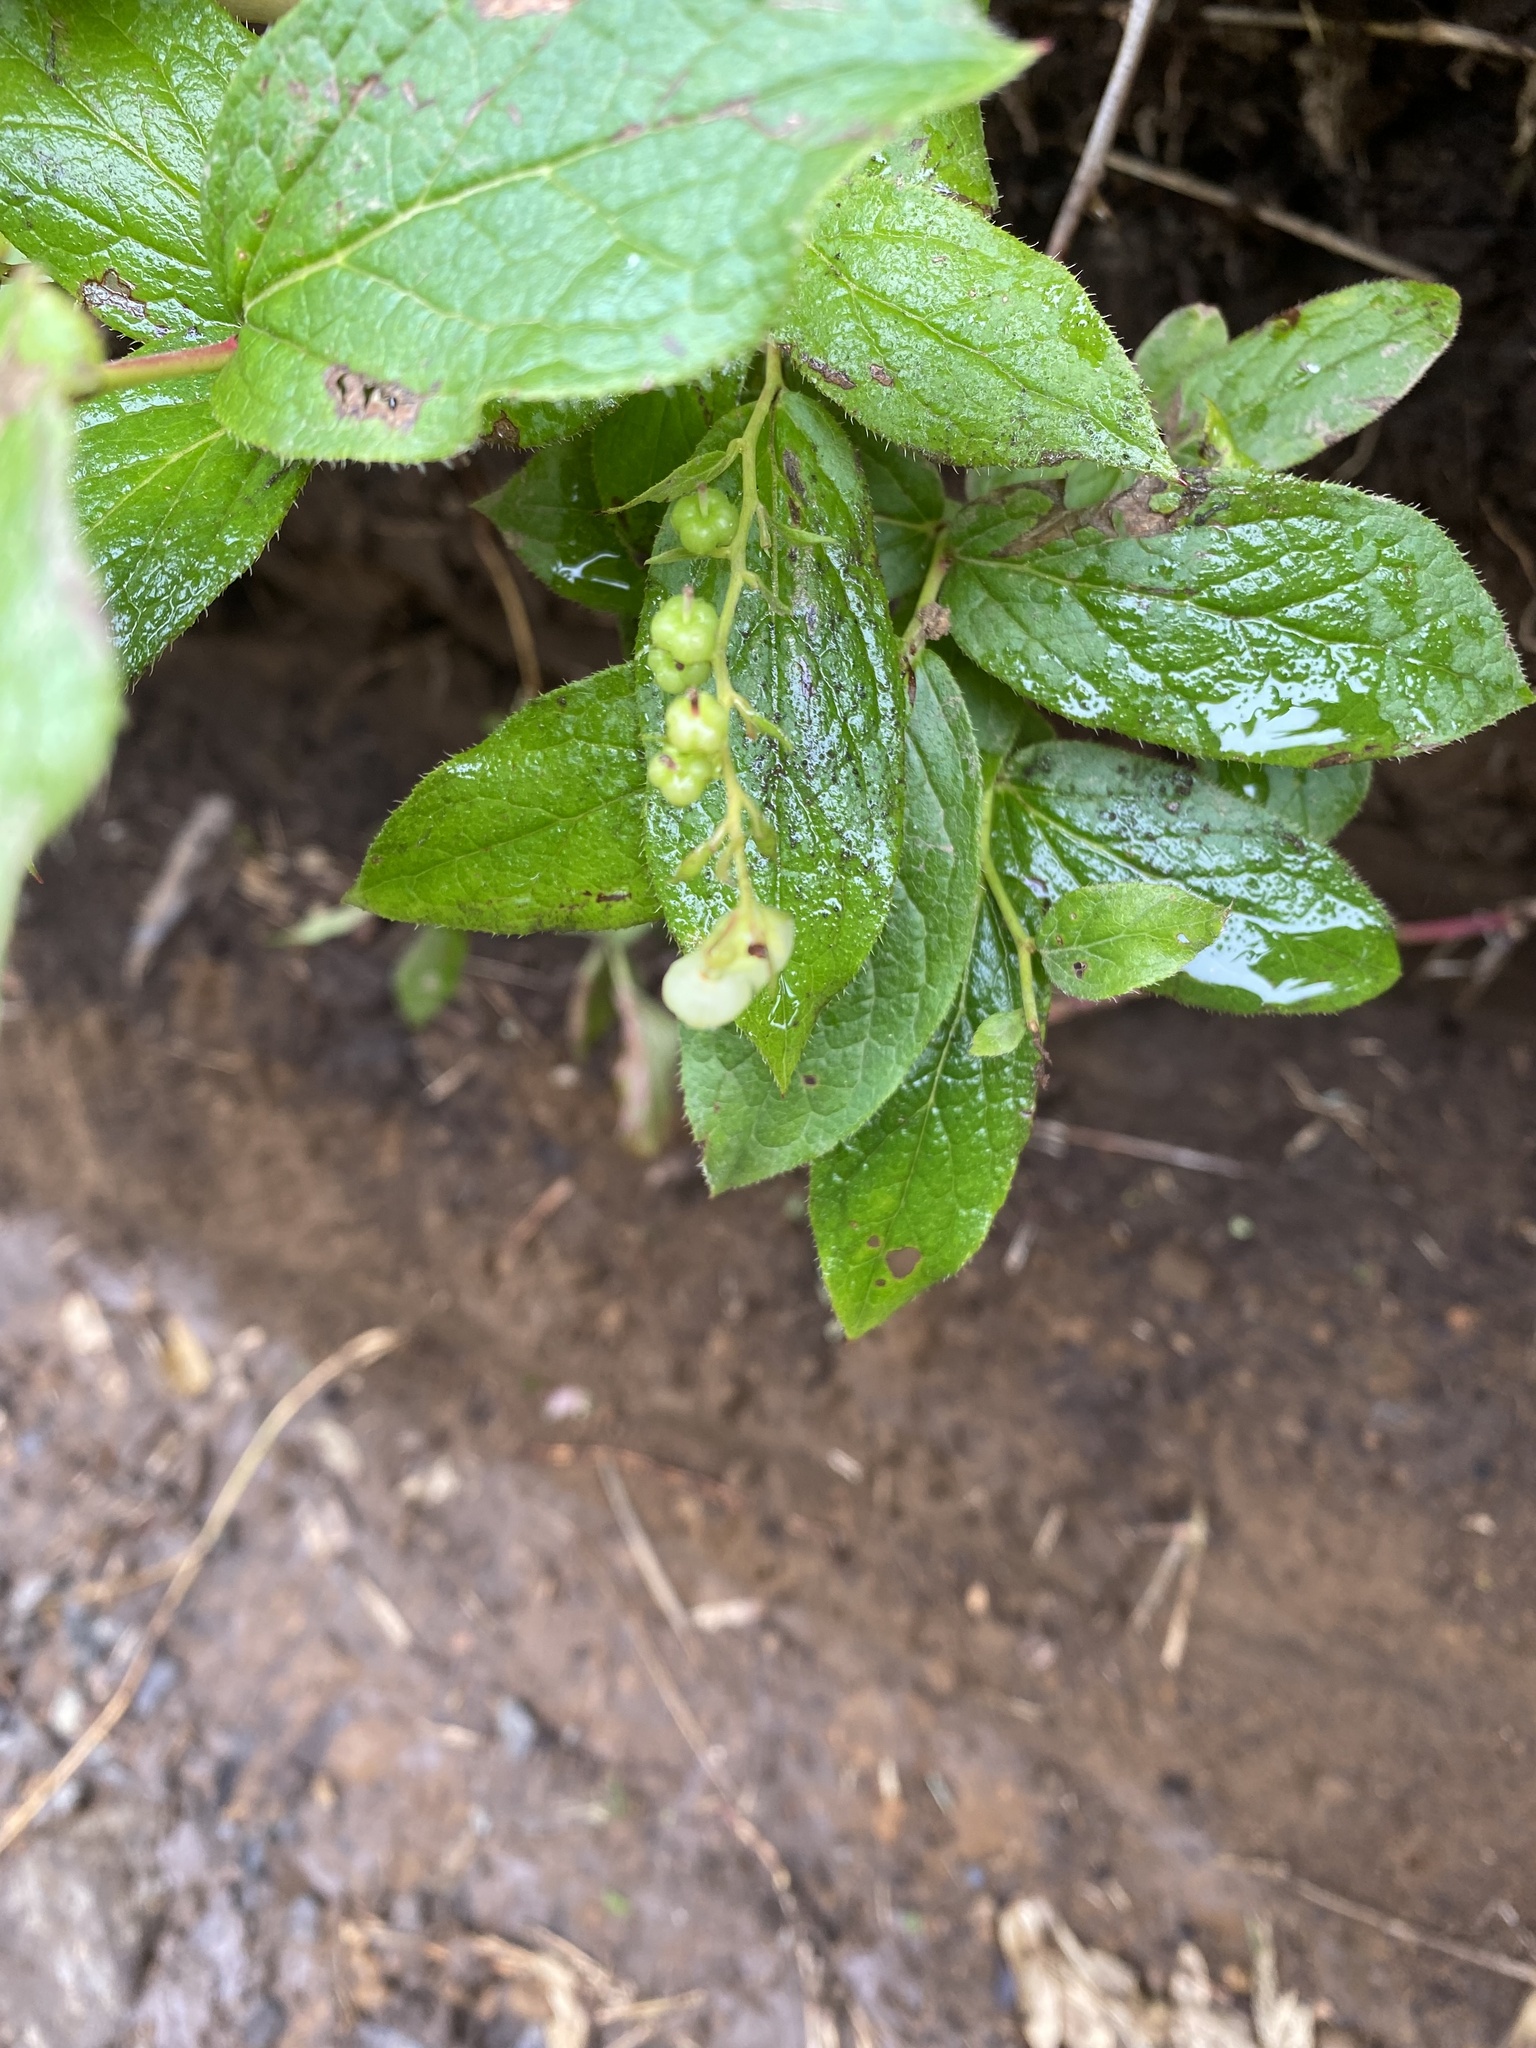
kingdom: Plantae
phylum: Tracheophyta
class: Magnoliopsida
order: Ericales
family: Ericaceae
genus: Leucothoe
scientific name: Leucothoe grayana
